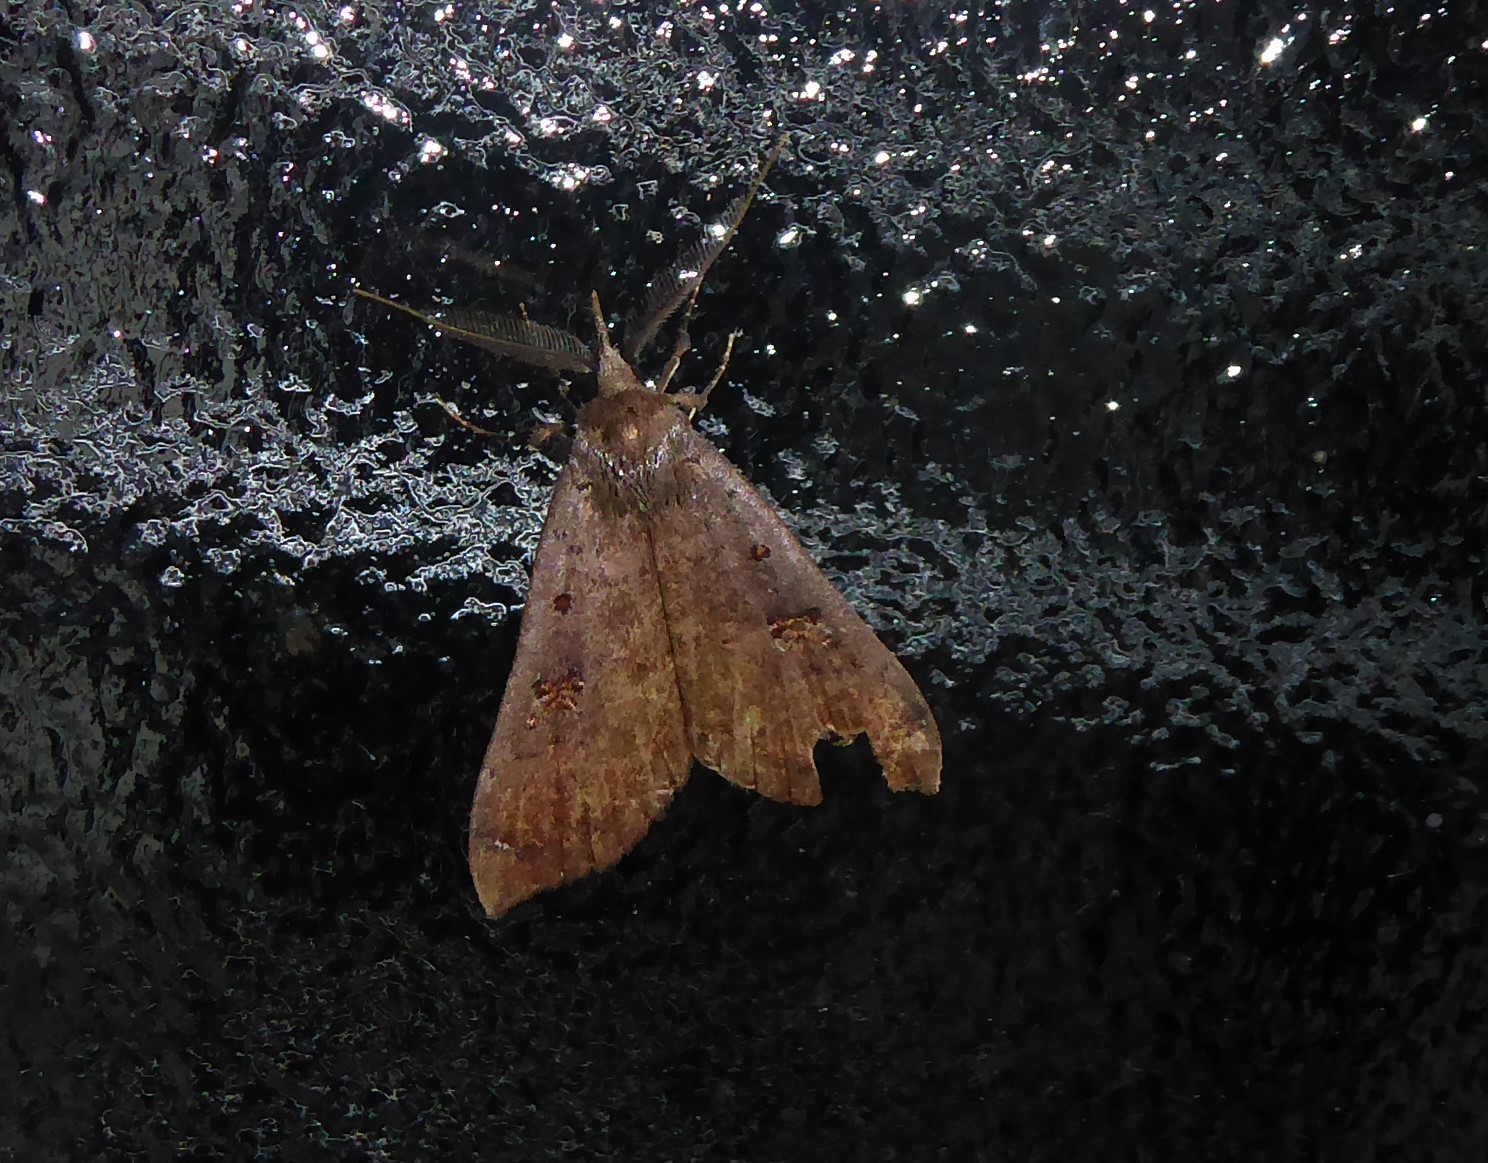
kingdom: Animalia
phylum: Arthropoda
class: Insecta
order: Lepidoptera
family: Erebidae
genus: Rhapsa
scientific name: Rhapsa scotosialis
